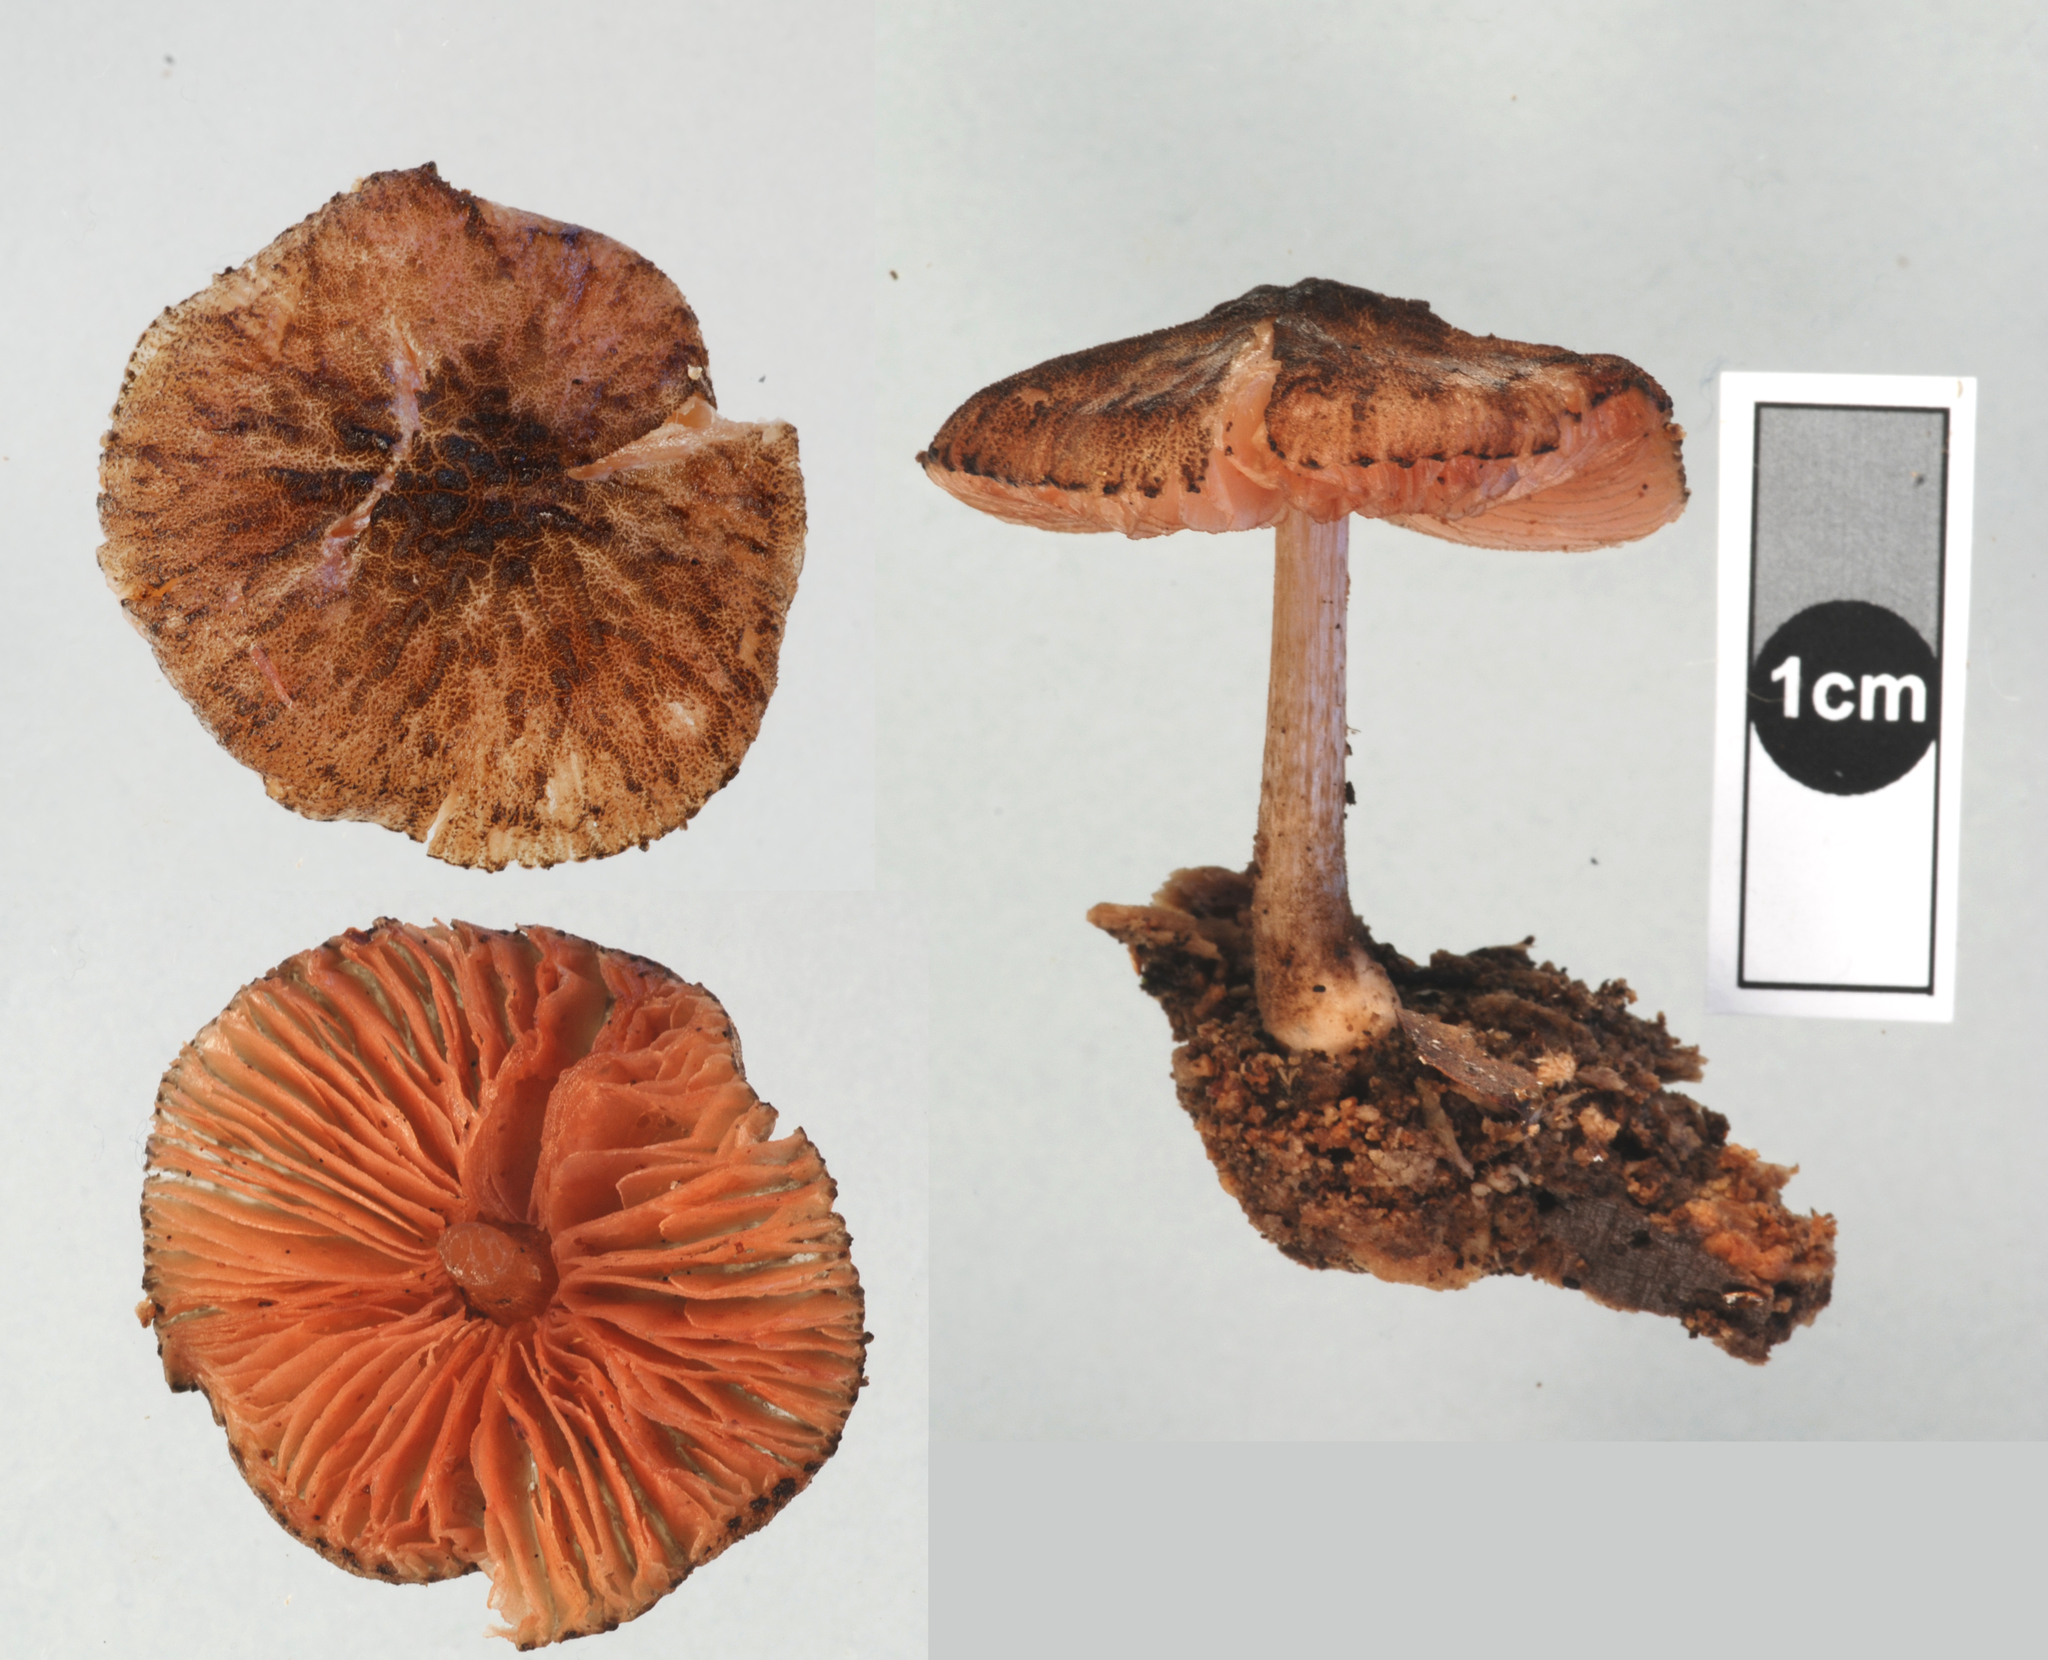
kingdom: Fungi
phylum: Basidiomycota
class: Agaricomycetes
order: Agaricales
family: Pluteaceae
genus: Pluteus
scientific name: Pluteus perroseus
